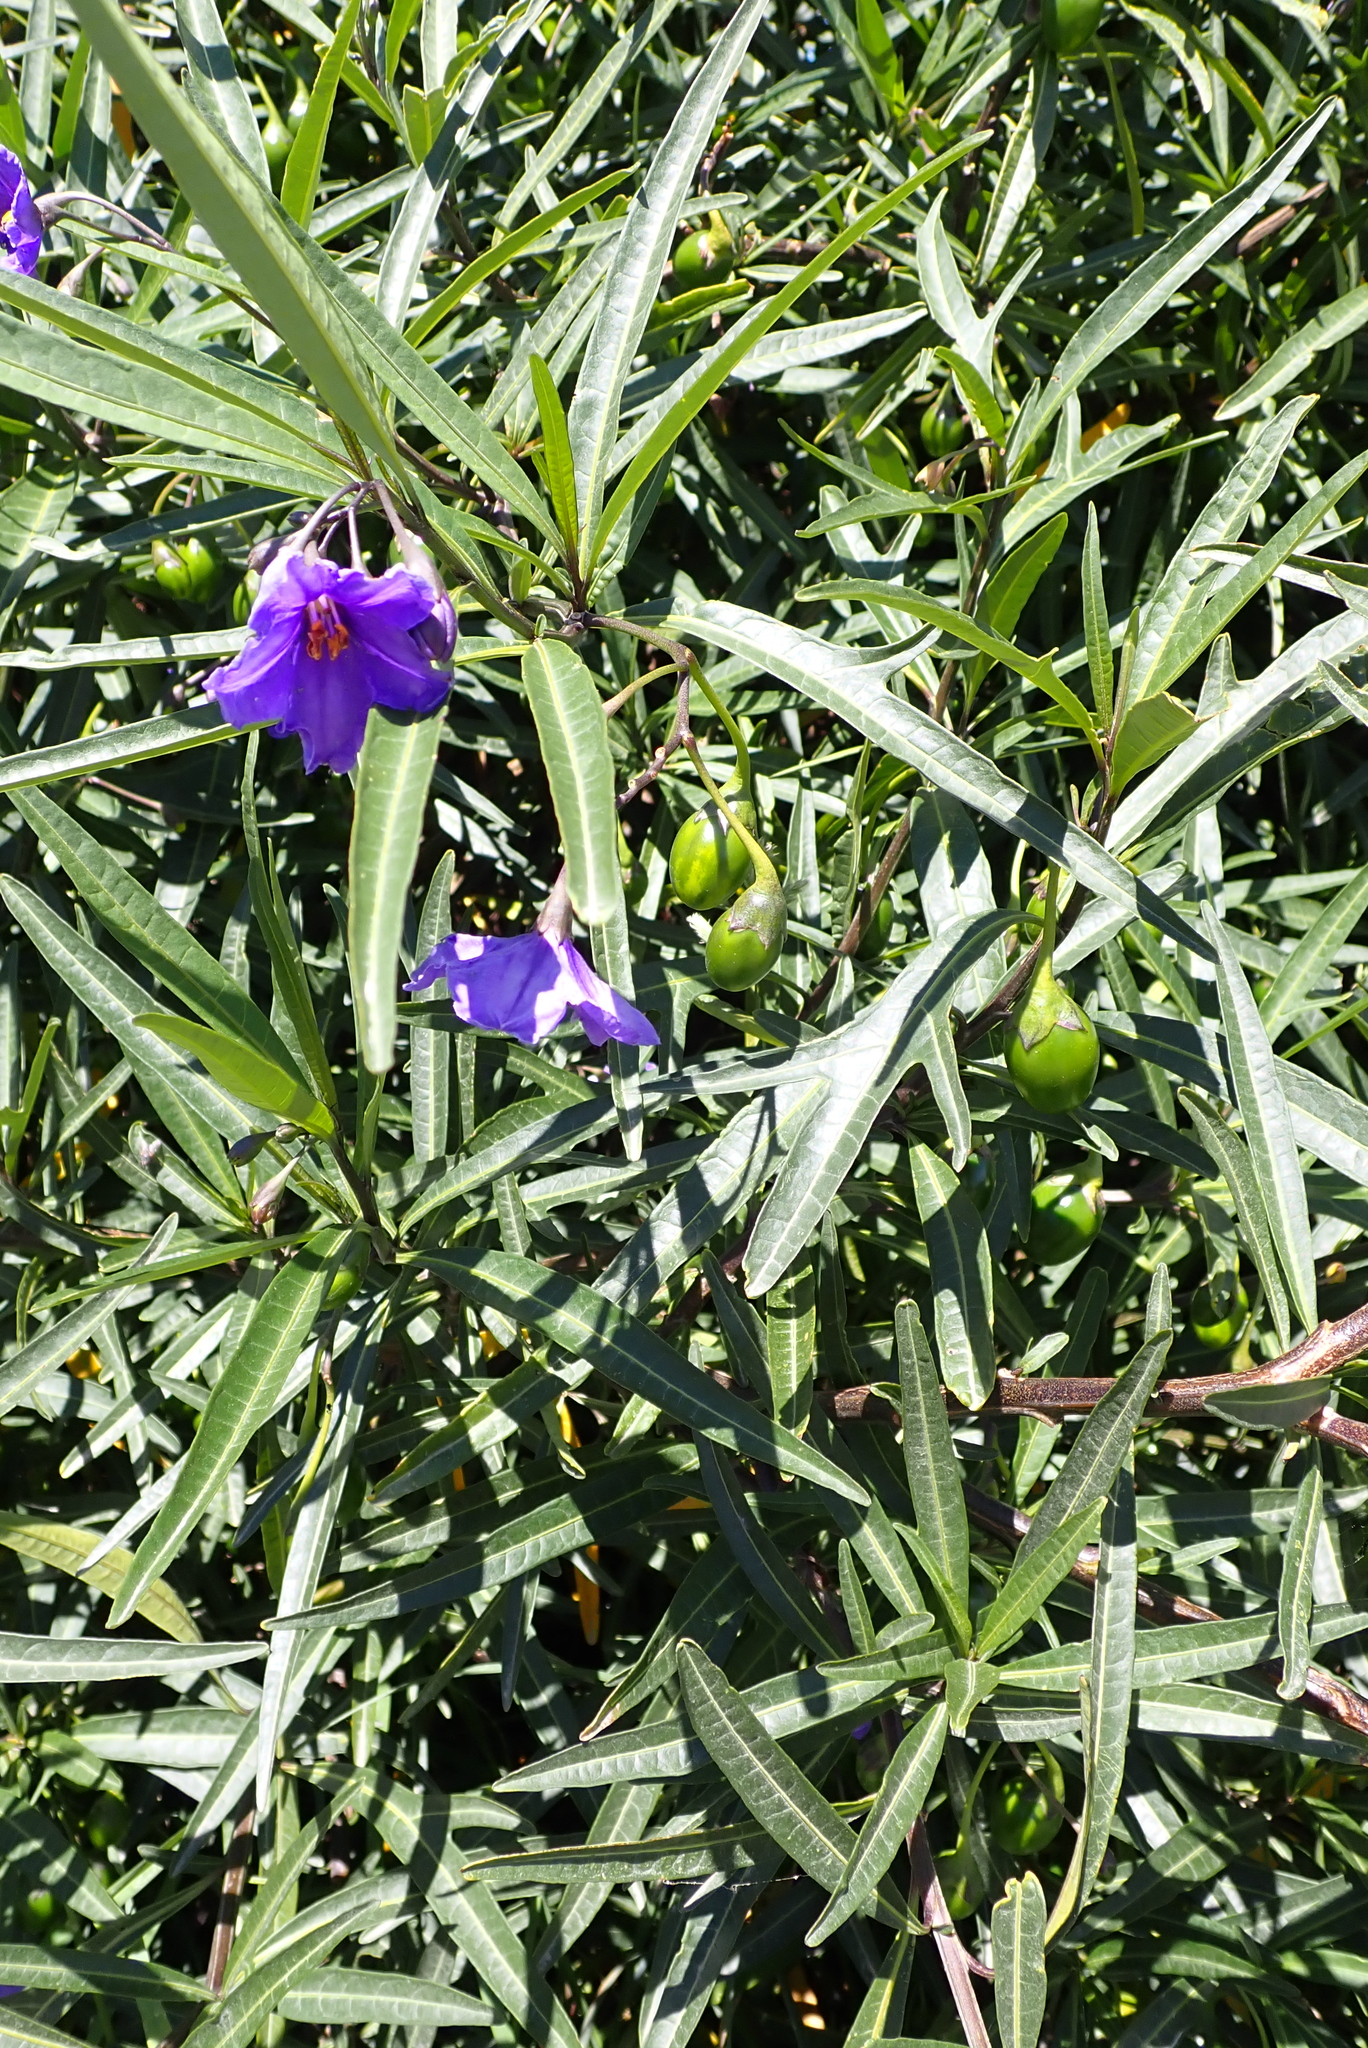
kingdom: Plantae
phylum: Tracheophyta
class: Magnoliopsida
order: Solanales
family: Solanaceae
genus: Solanum
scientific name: Solanum laciniatum
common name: Kangaroo-apple
